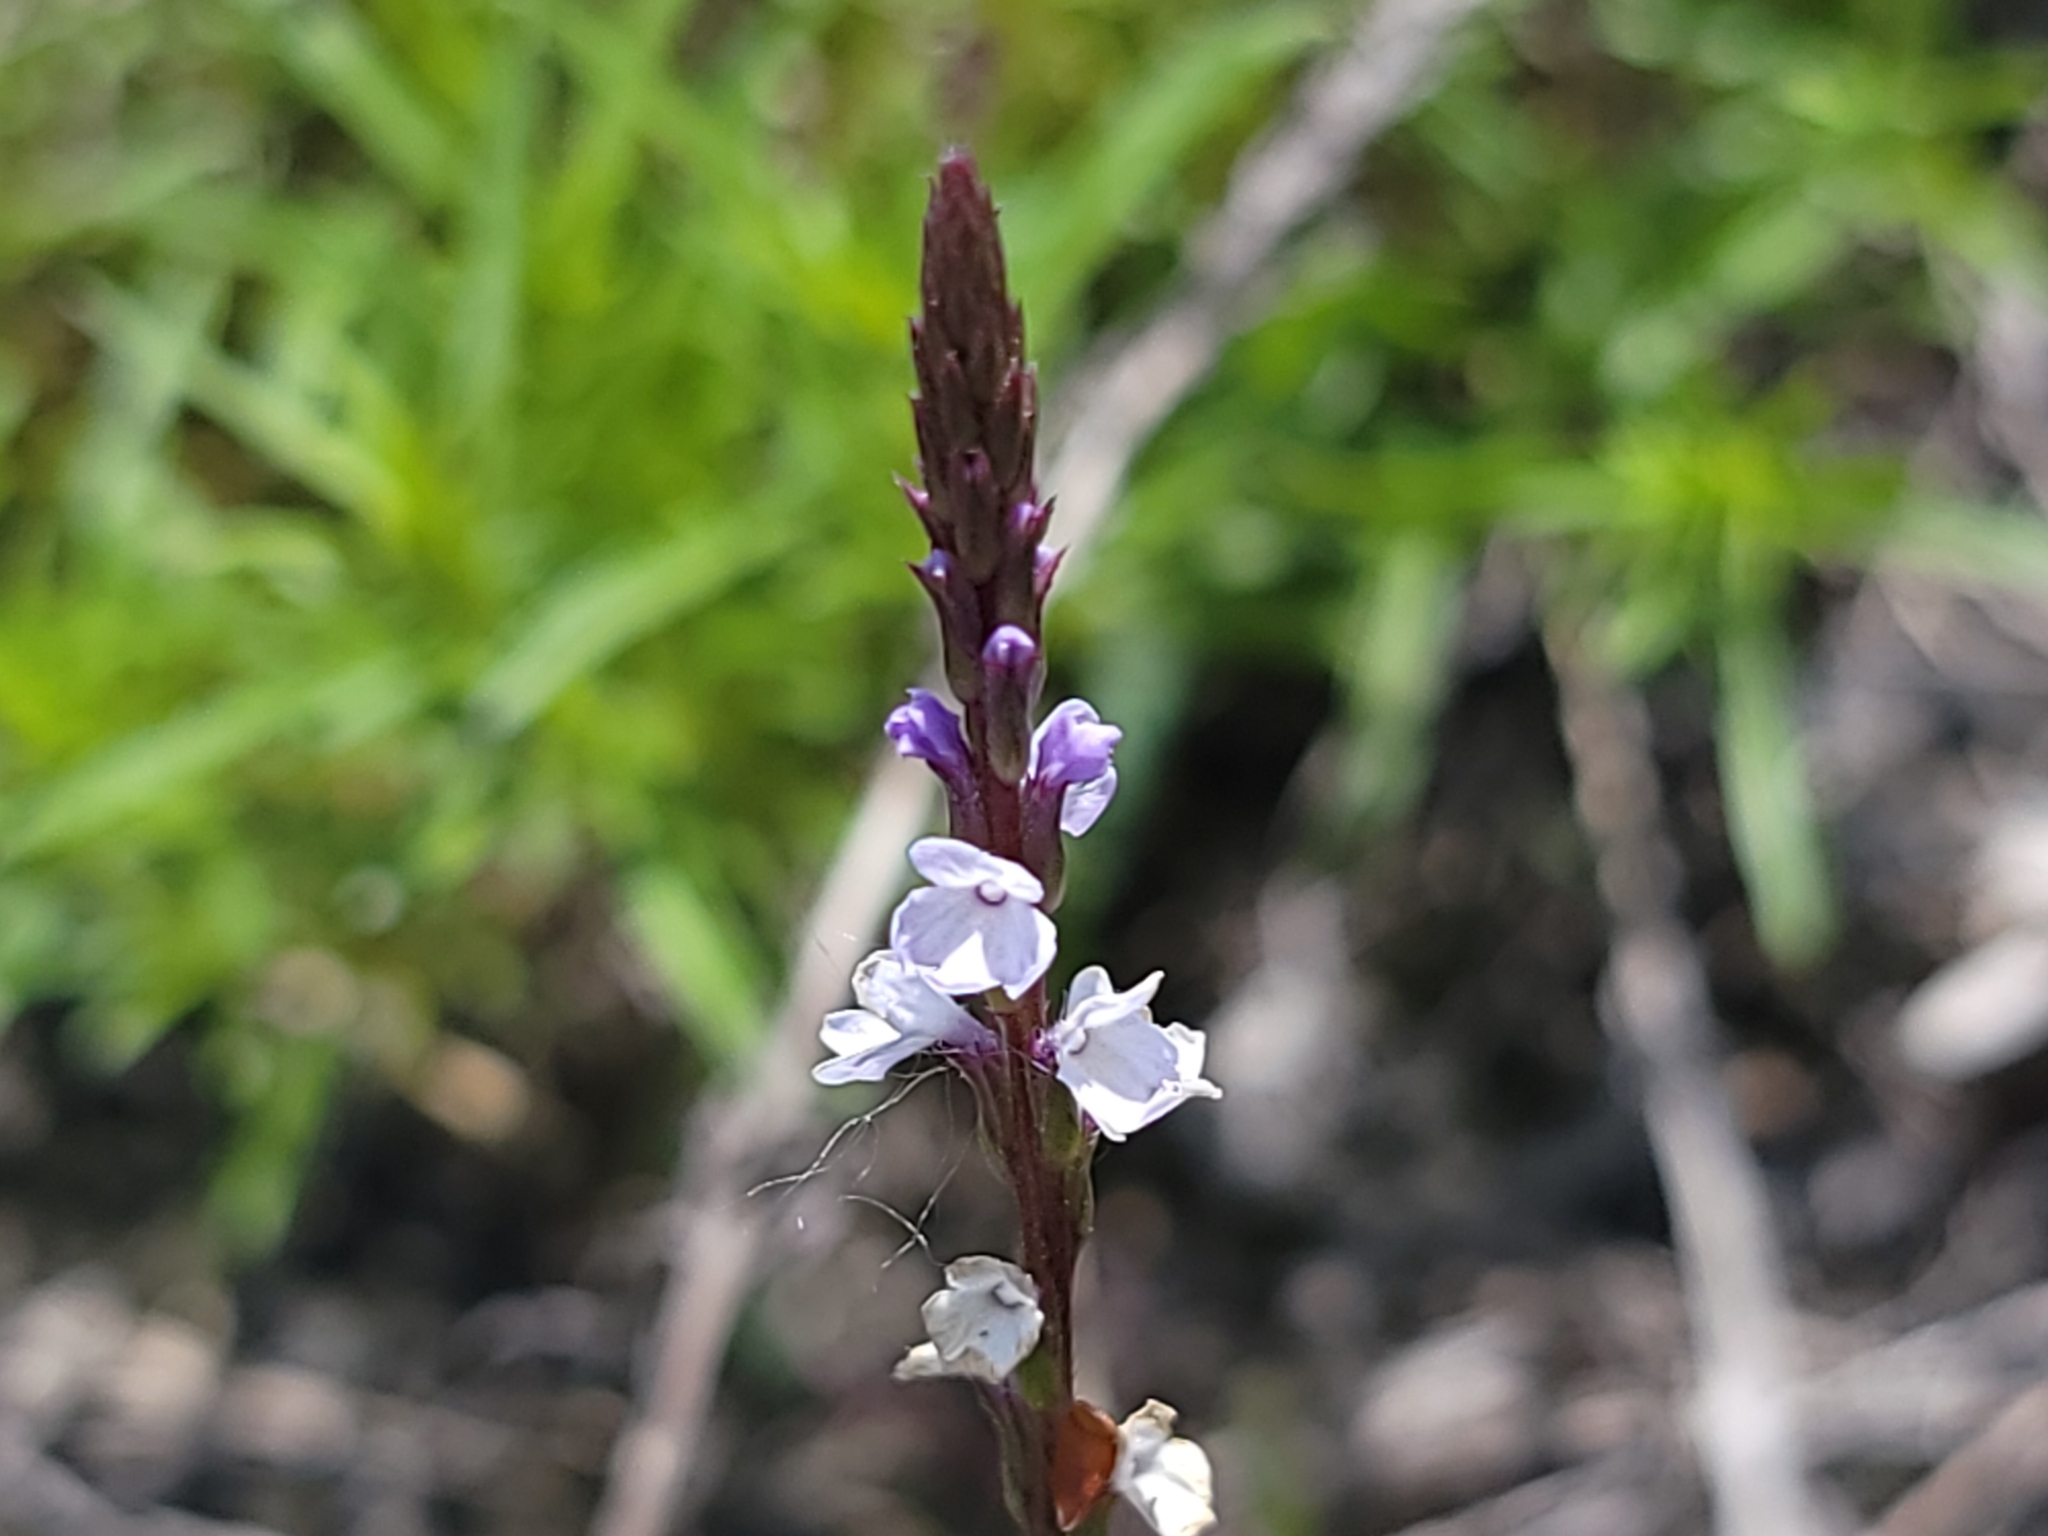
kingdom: Plantae
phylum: Tracheophyta
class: Magnoliopsida
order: Lamiales
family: Verbenaceae
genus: Verbena
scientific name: Verbena simplex
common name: Narrow-leaf vervain
